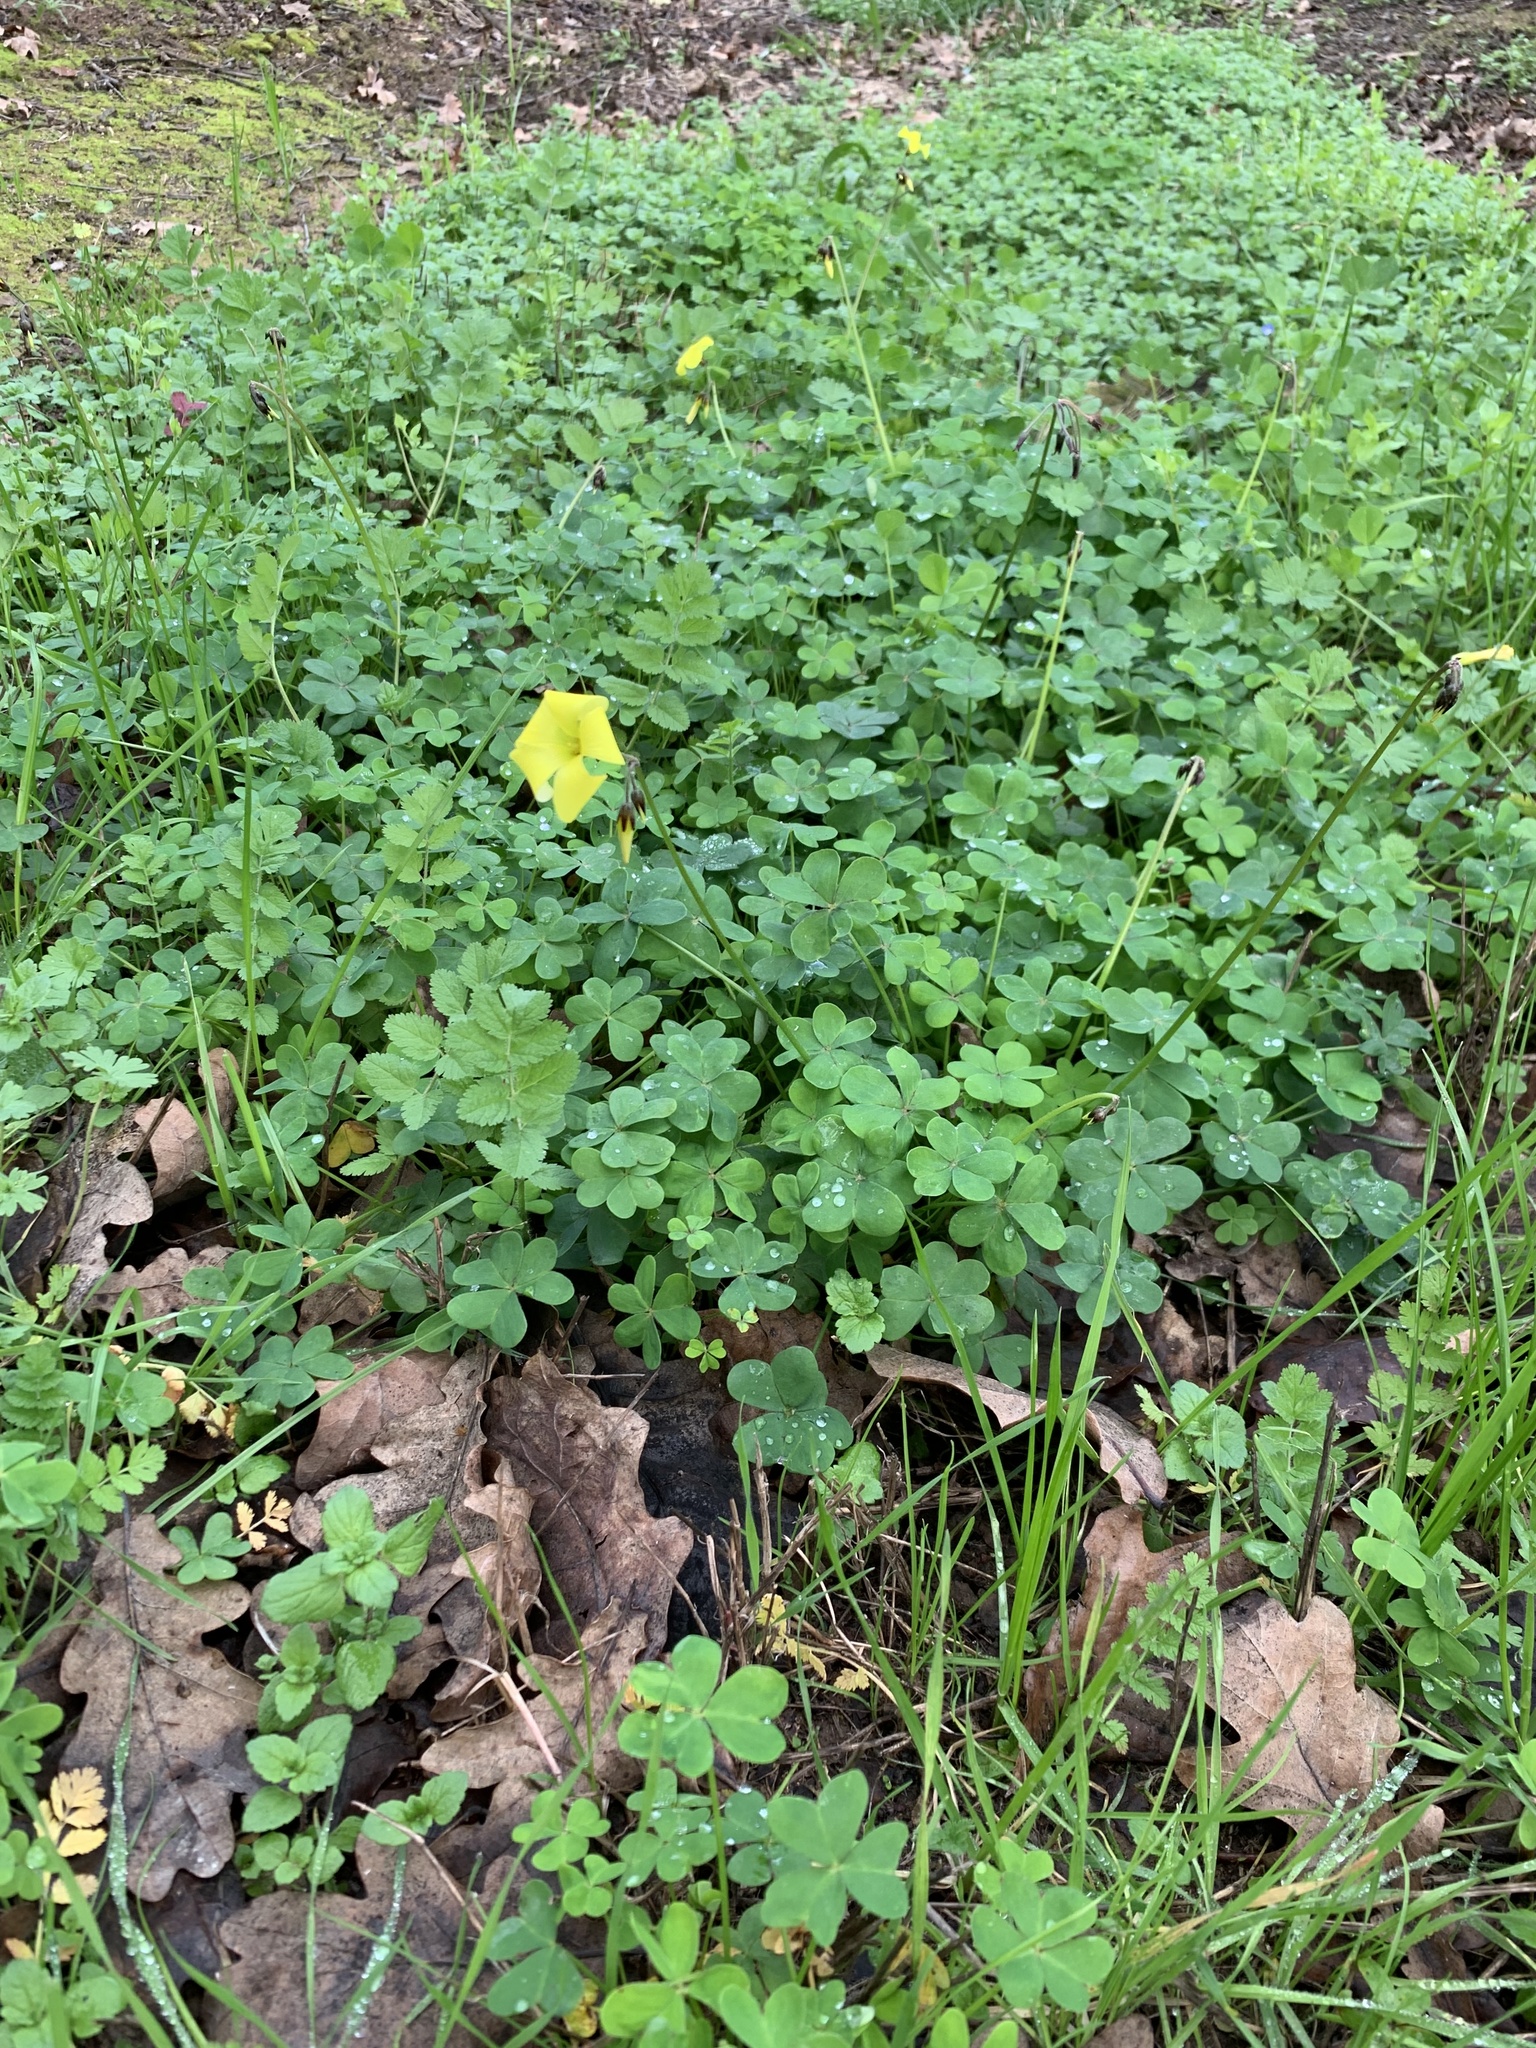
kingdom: Plantae
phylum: Tracheophyta
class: Magnoliopsida
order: Oxalidales
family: Oxalidaceae
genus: Oxalis
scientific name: Oxalis pes-caprae
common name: Bermuda-buttercup
